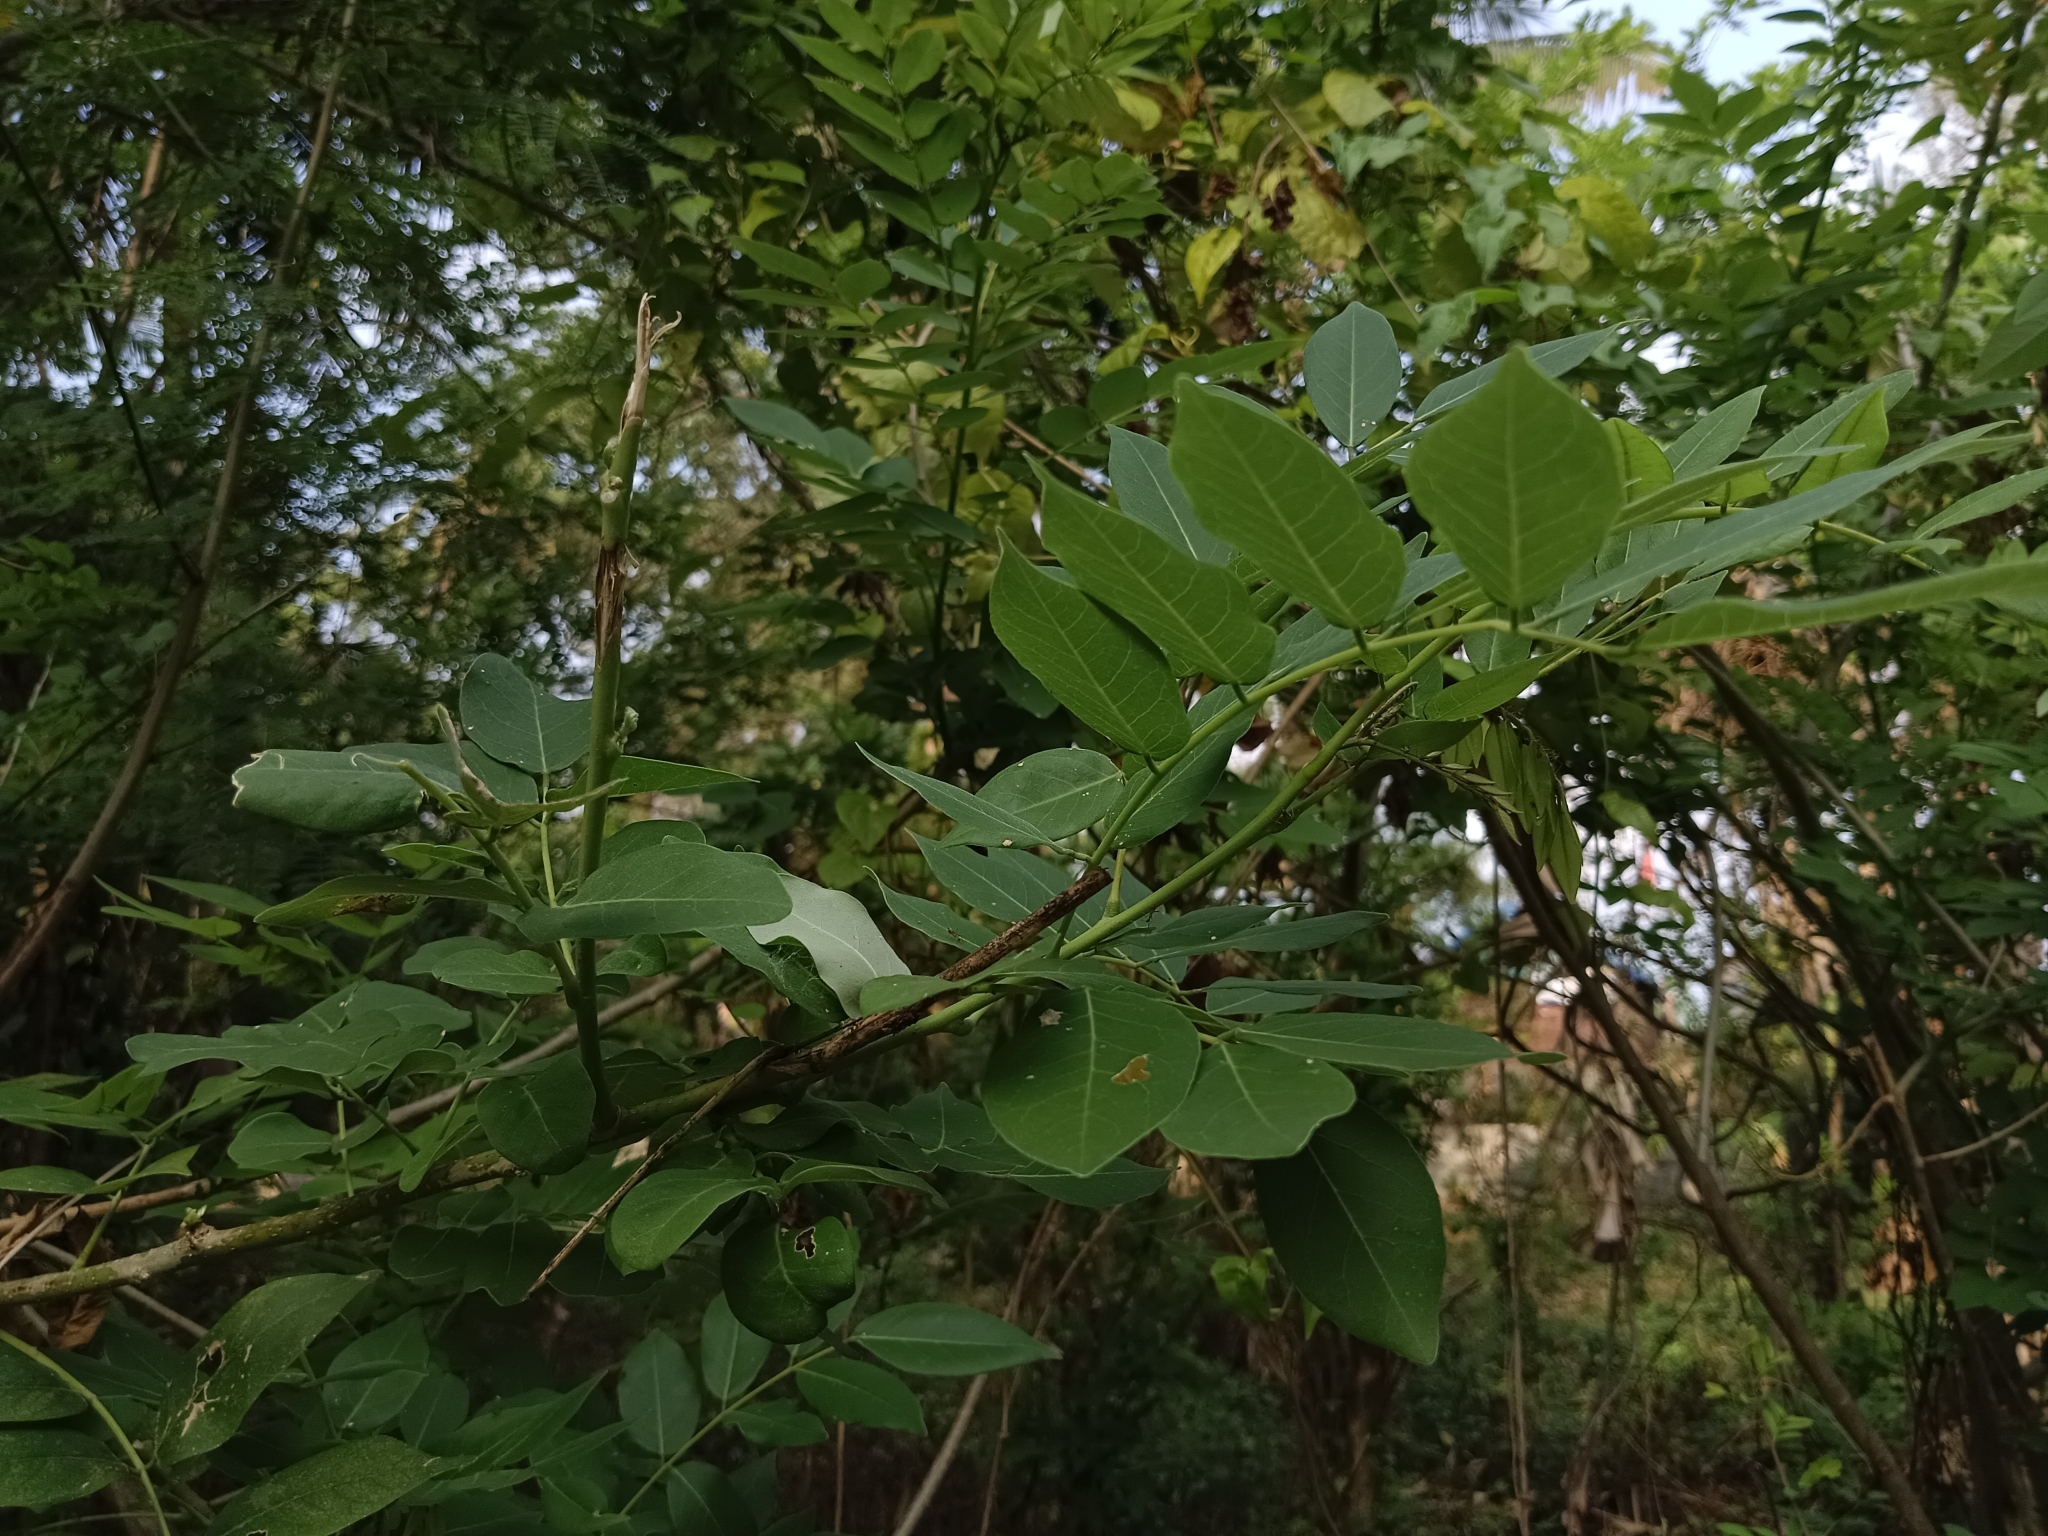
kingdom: Plantae
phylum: Tracheophyta
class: Magnoliopsida
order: Fabales
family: Fabaceae
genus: Gliricidia
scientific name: Gliricidia sepium
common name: Quickstick
